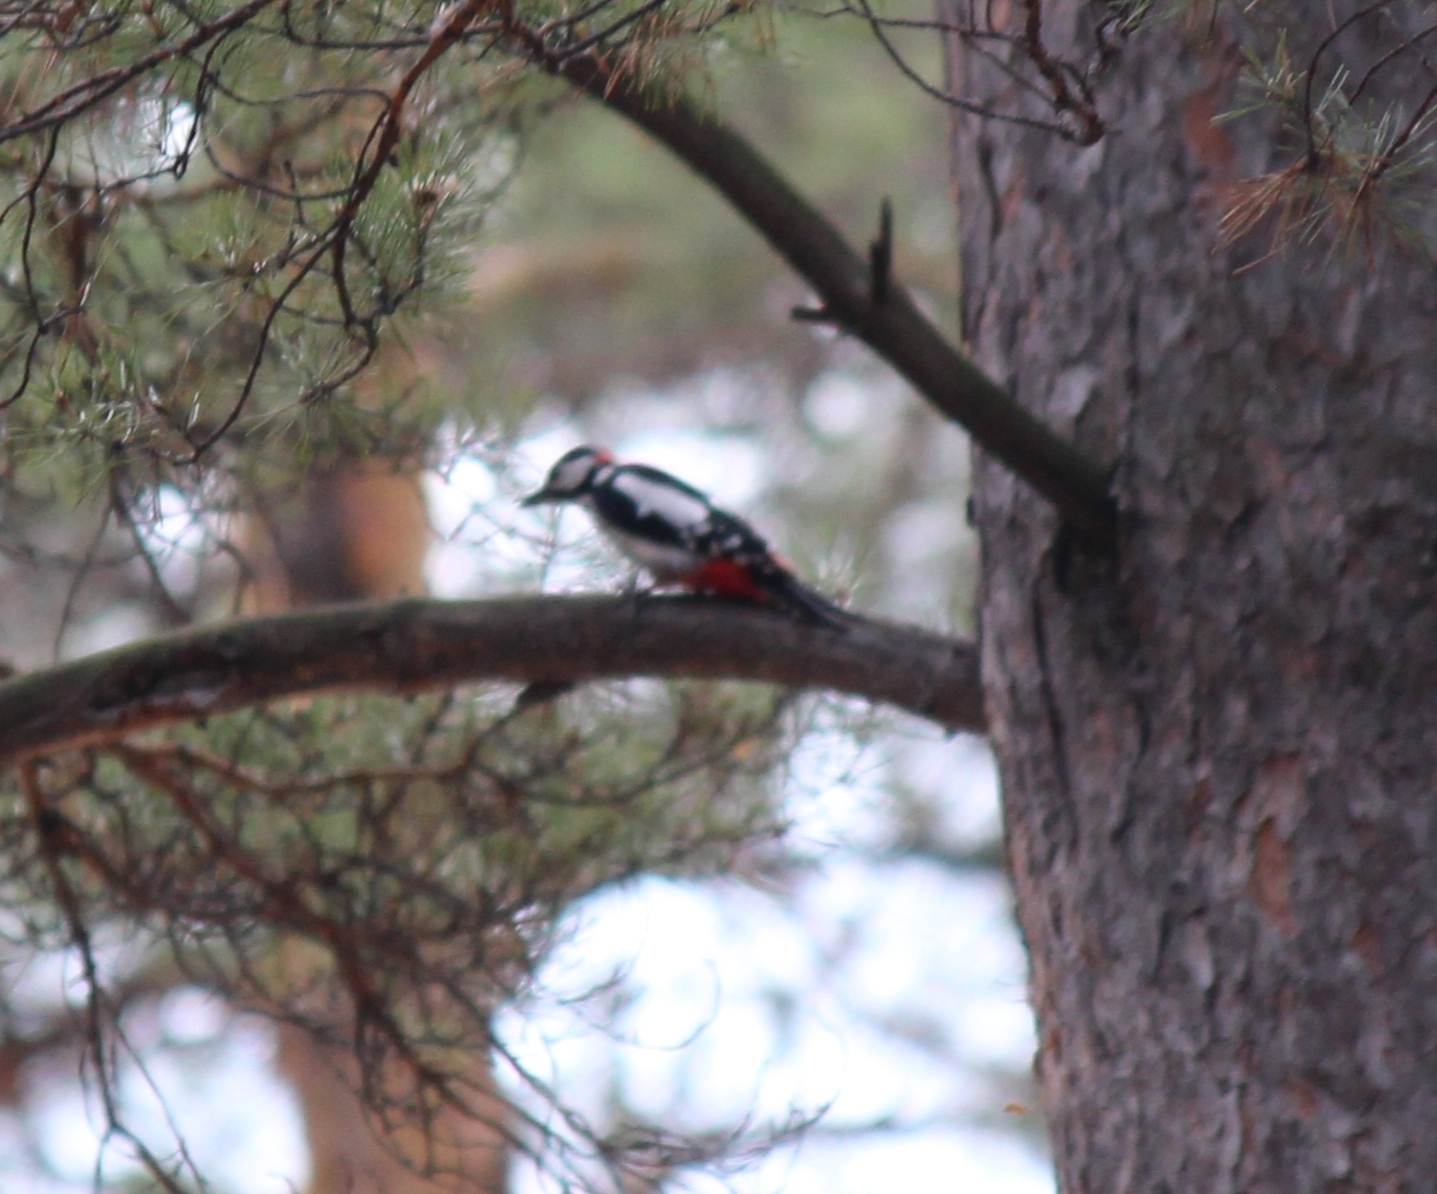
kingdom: Animalia
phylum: Chordata
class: Aves
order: Piciformes
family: Picidae
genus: Dendrocopos
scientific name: Dendrocopos major
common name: Great spotted woodpecker
